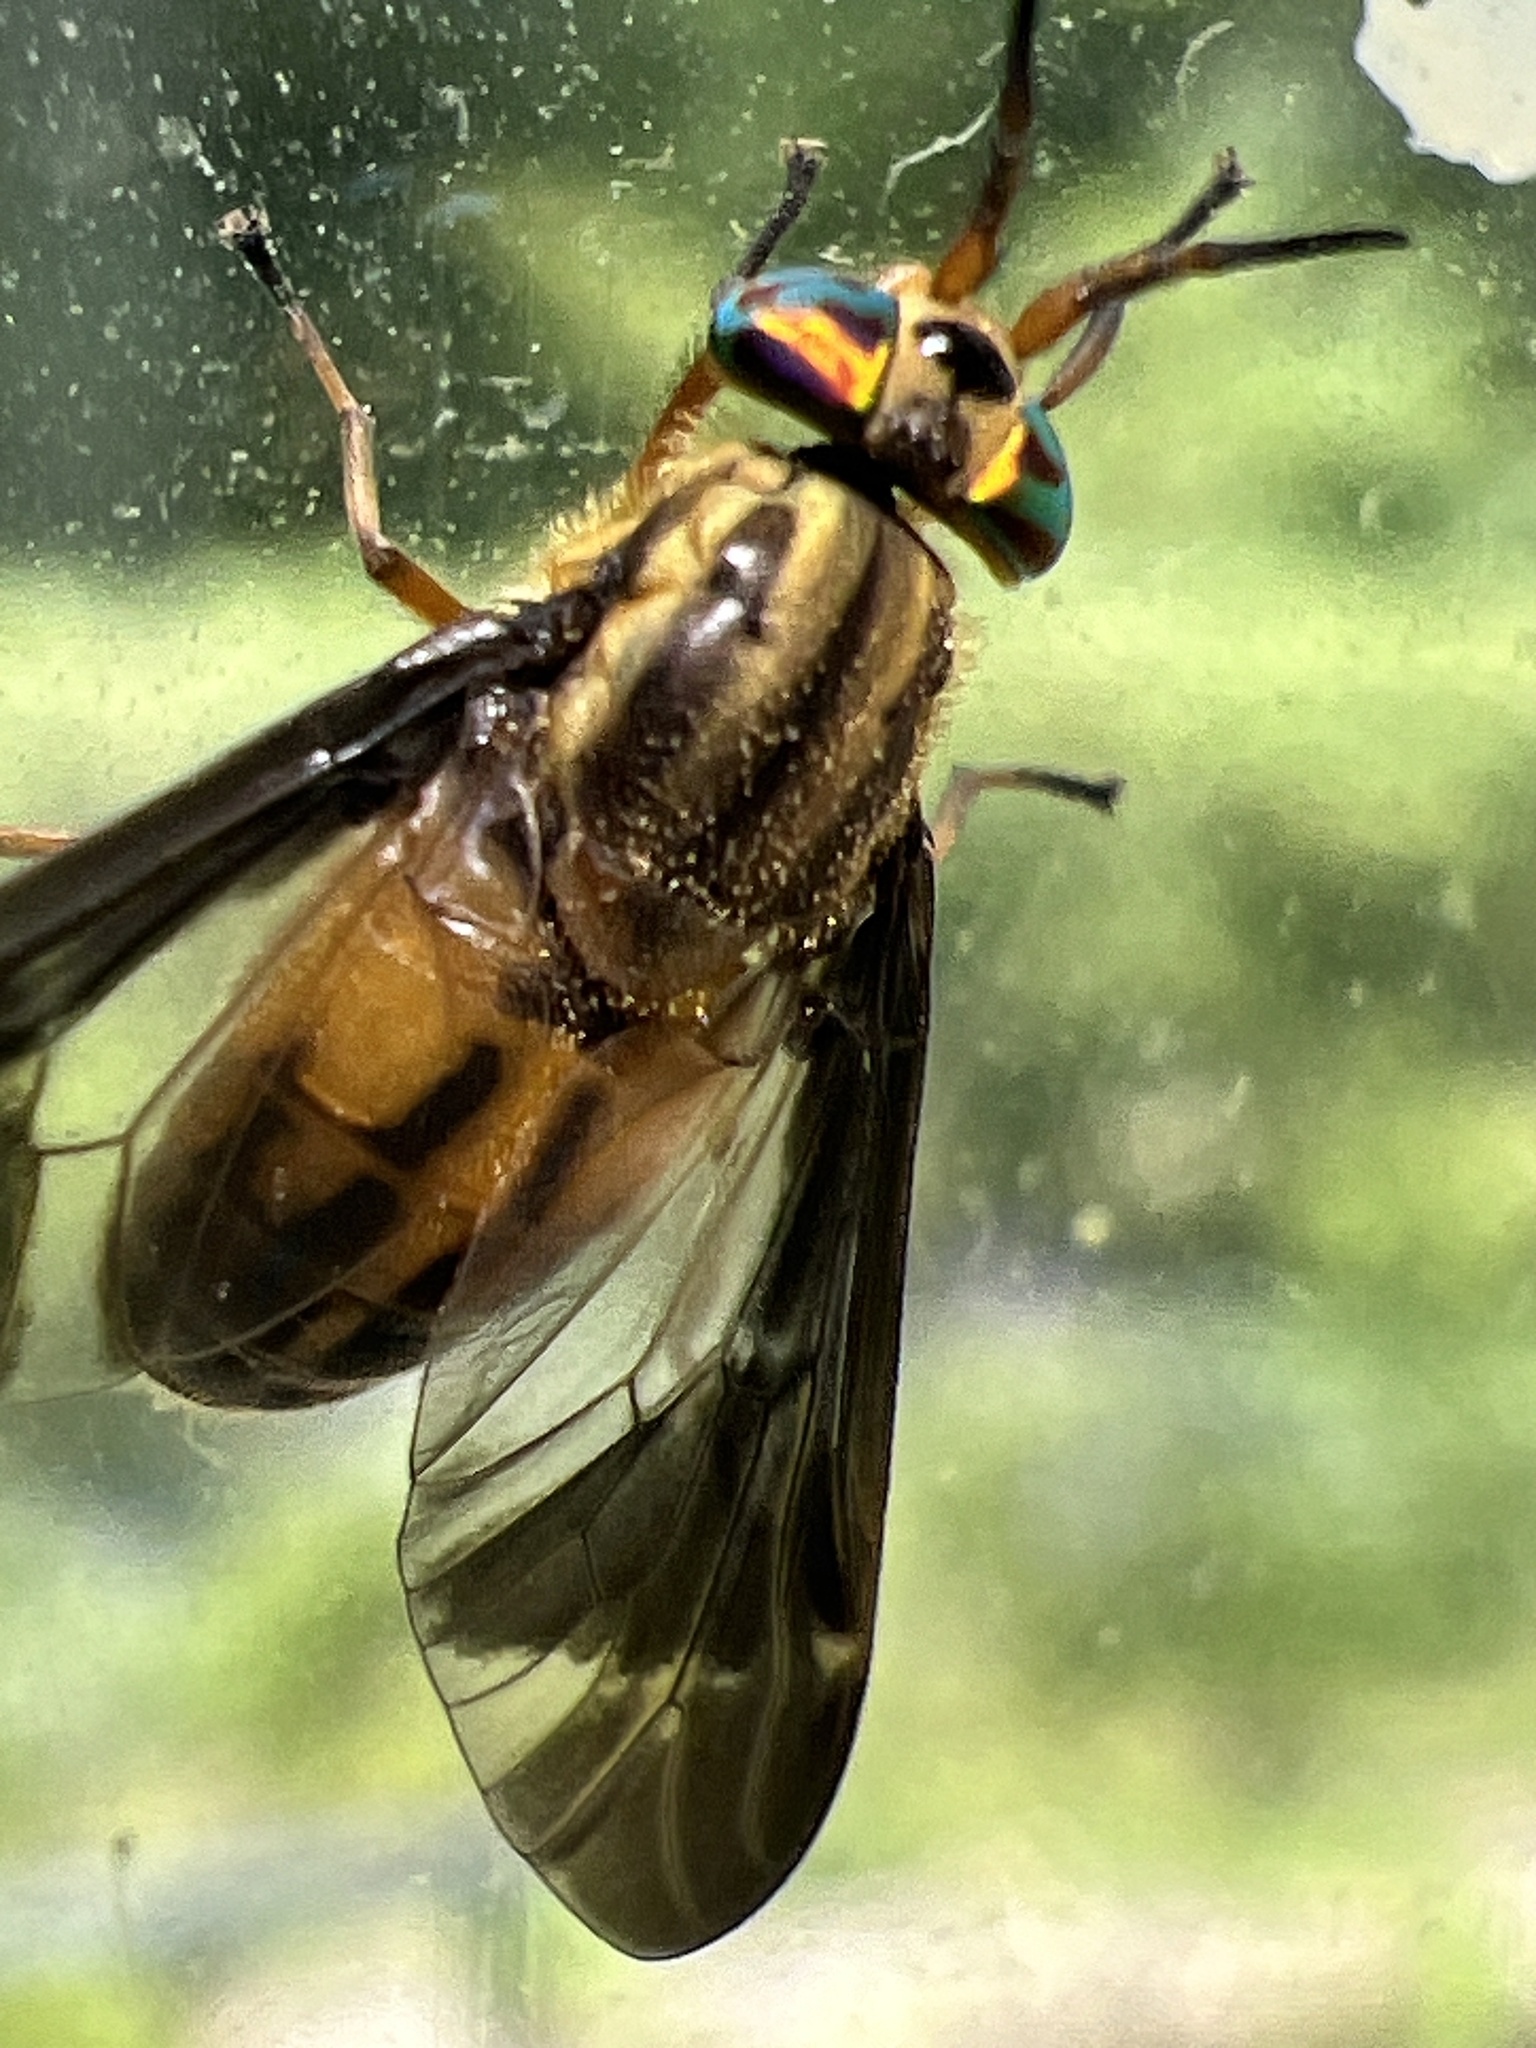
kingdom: Animalia
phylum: Arthropoda
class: Insecta
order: Diptera
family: Tabanidae
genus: Chrysops
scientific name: Chrysops moechus
